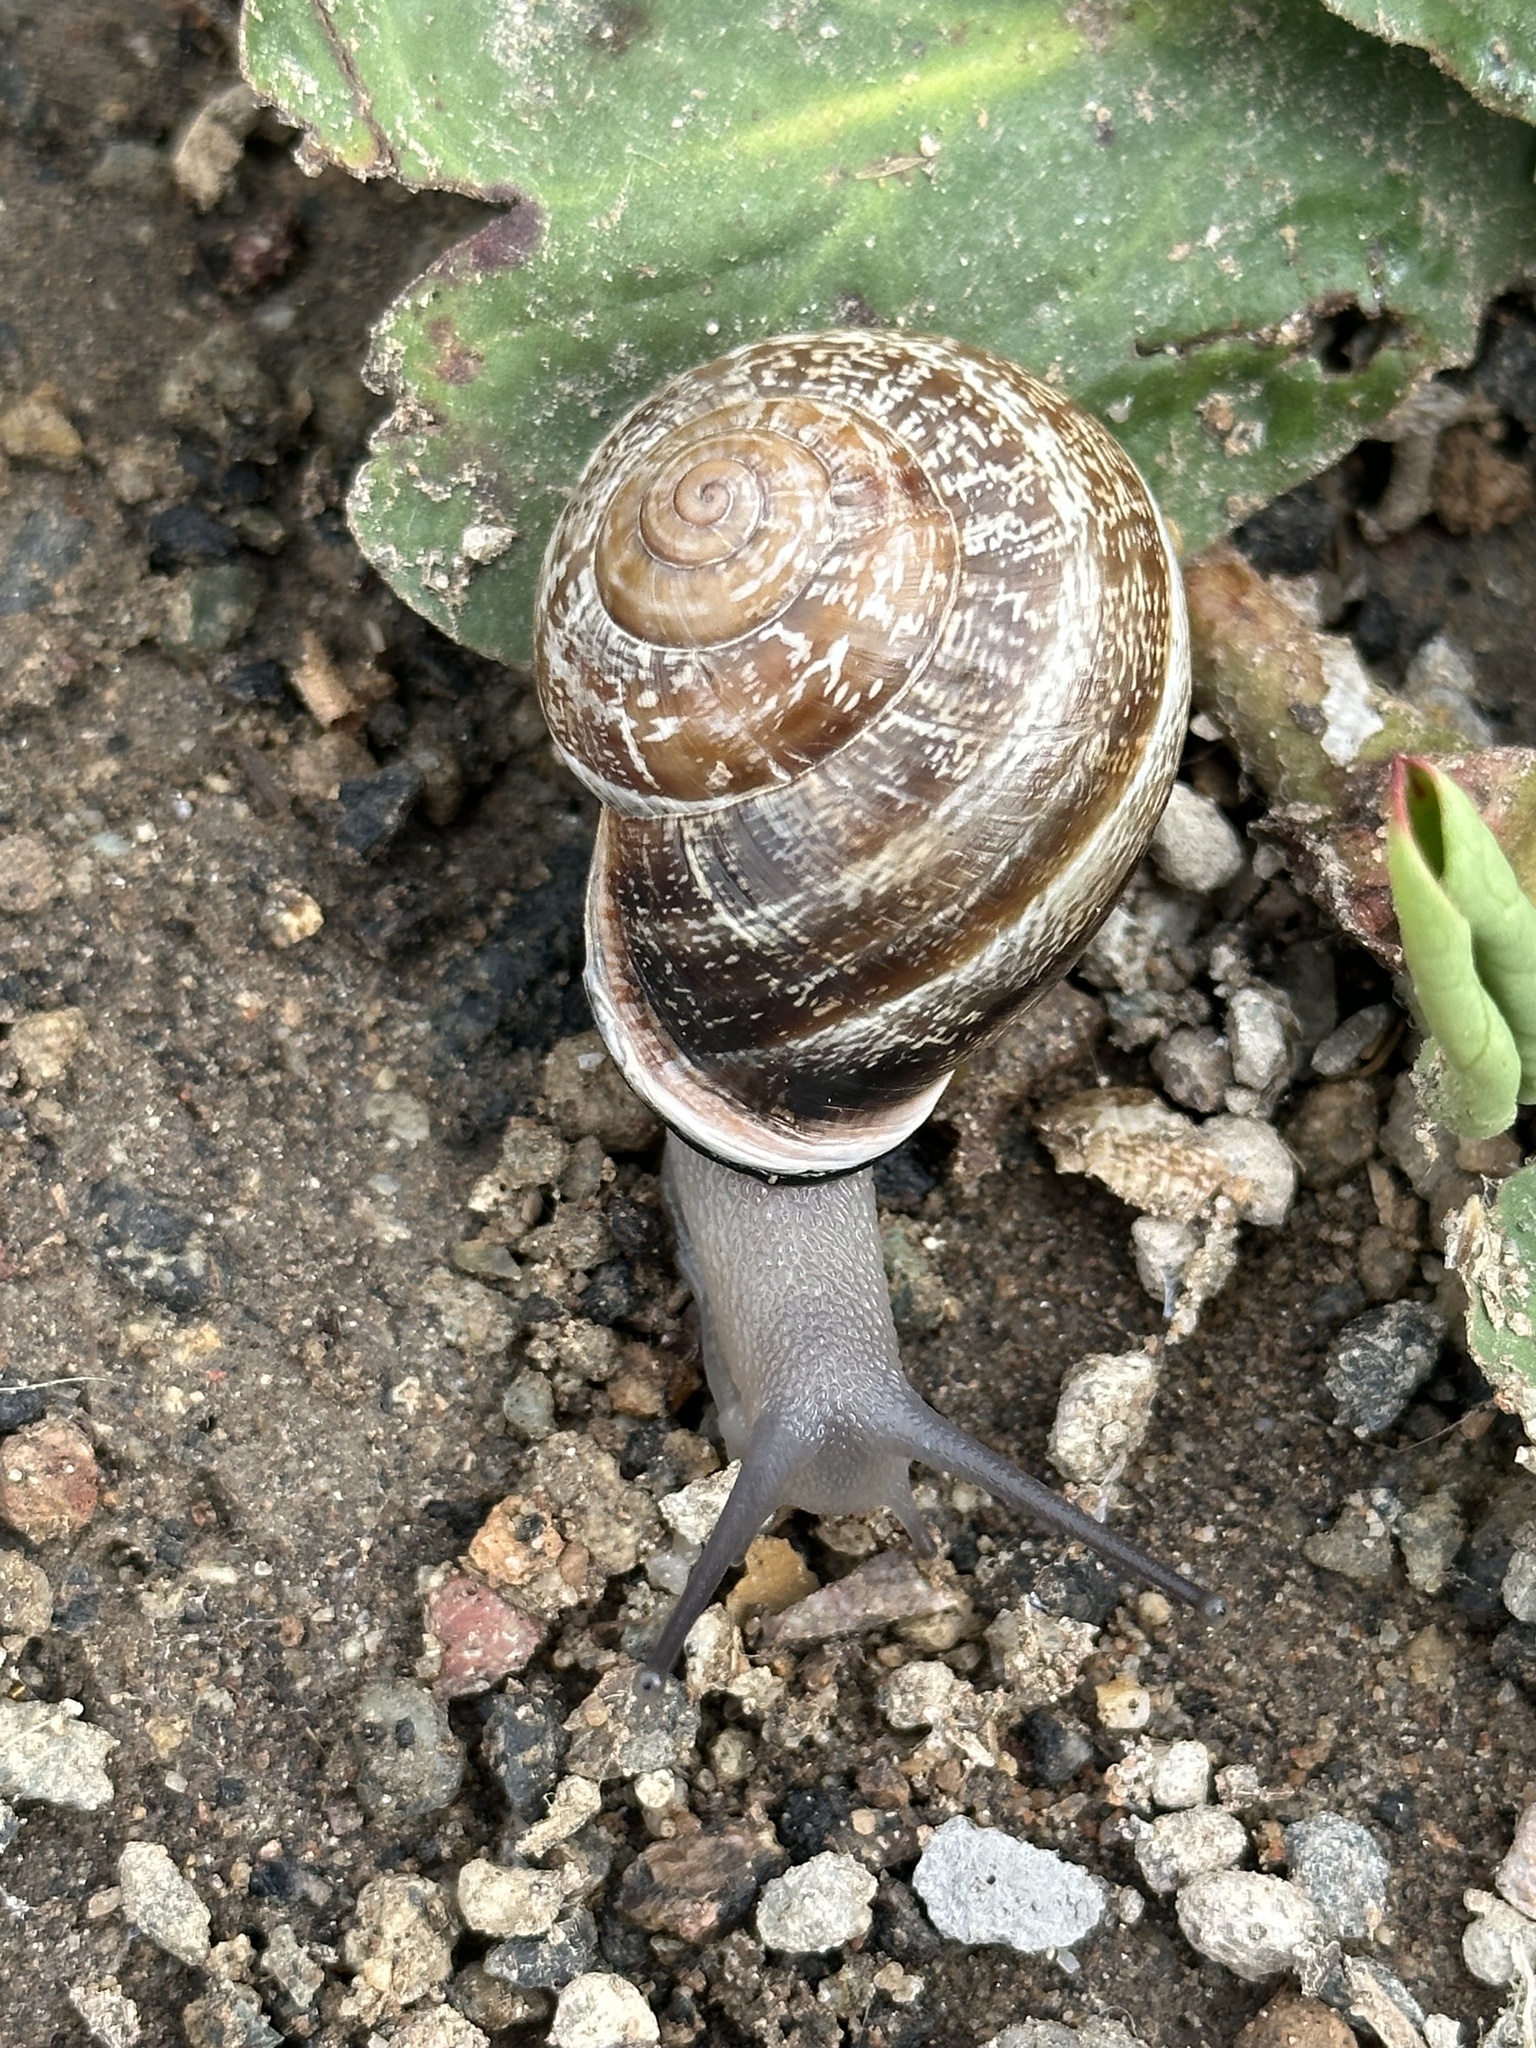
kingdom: Animalia
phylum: Mollusca
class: Gastropoda
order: Stylommatophora
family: Helicidae
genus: Otala
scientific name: Otala lactea
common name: Milk snail
